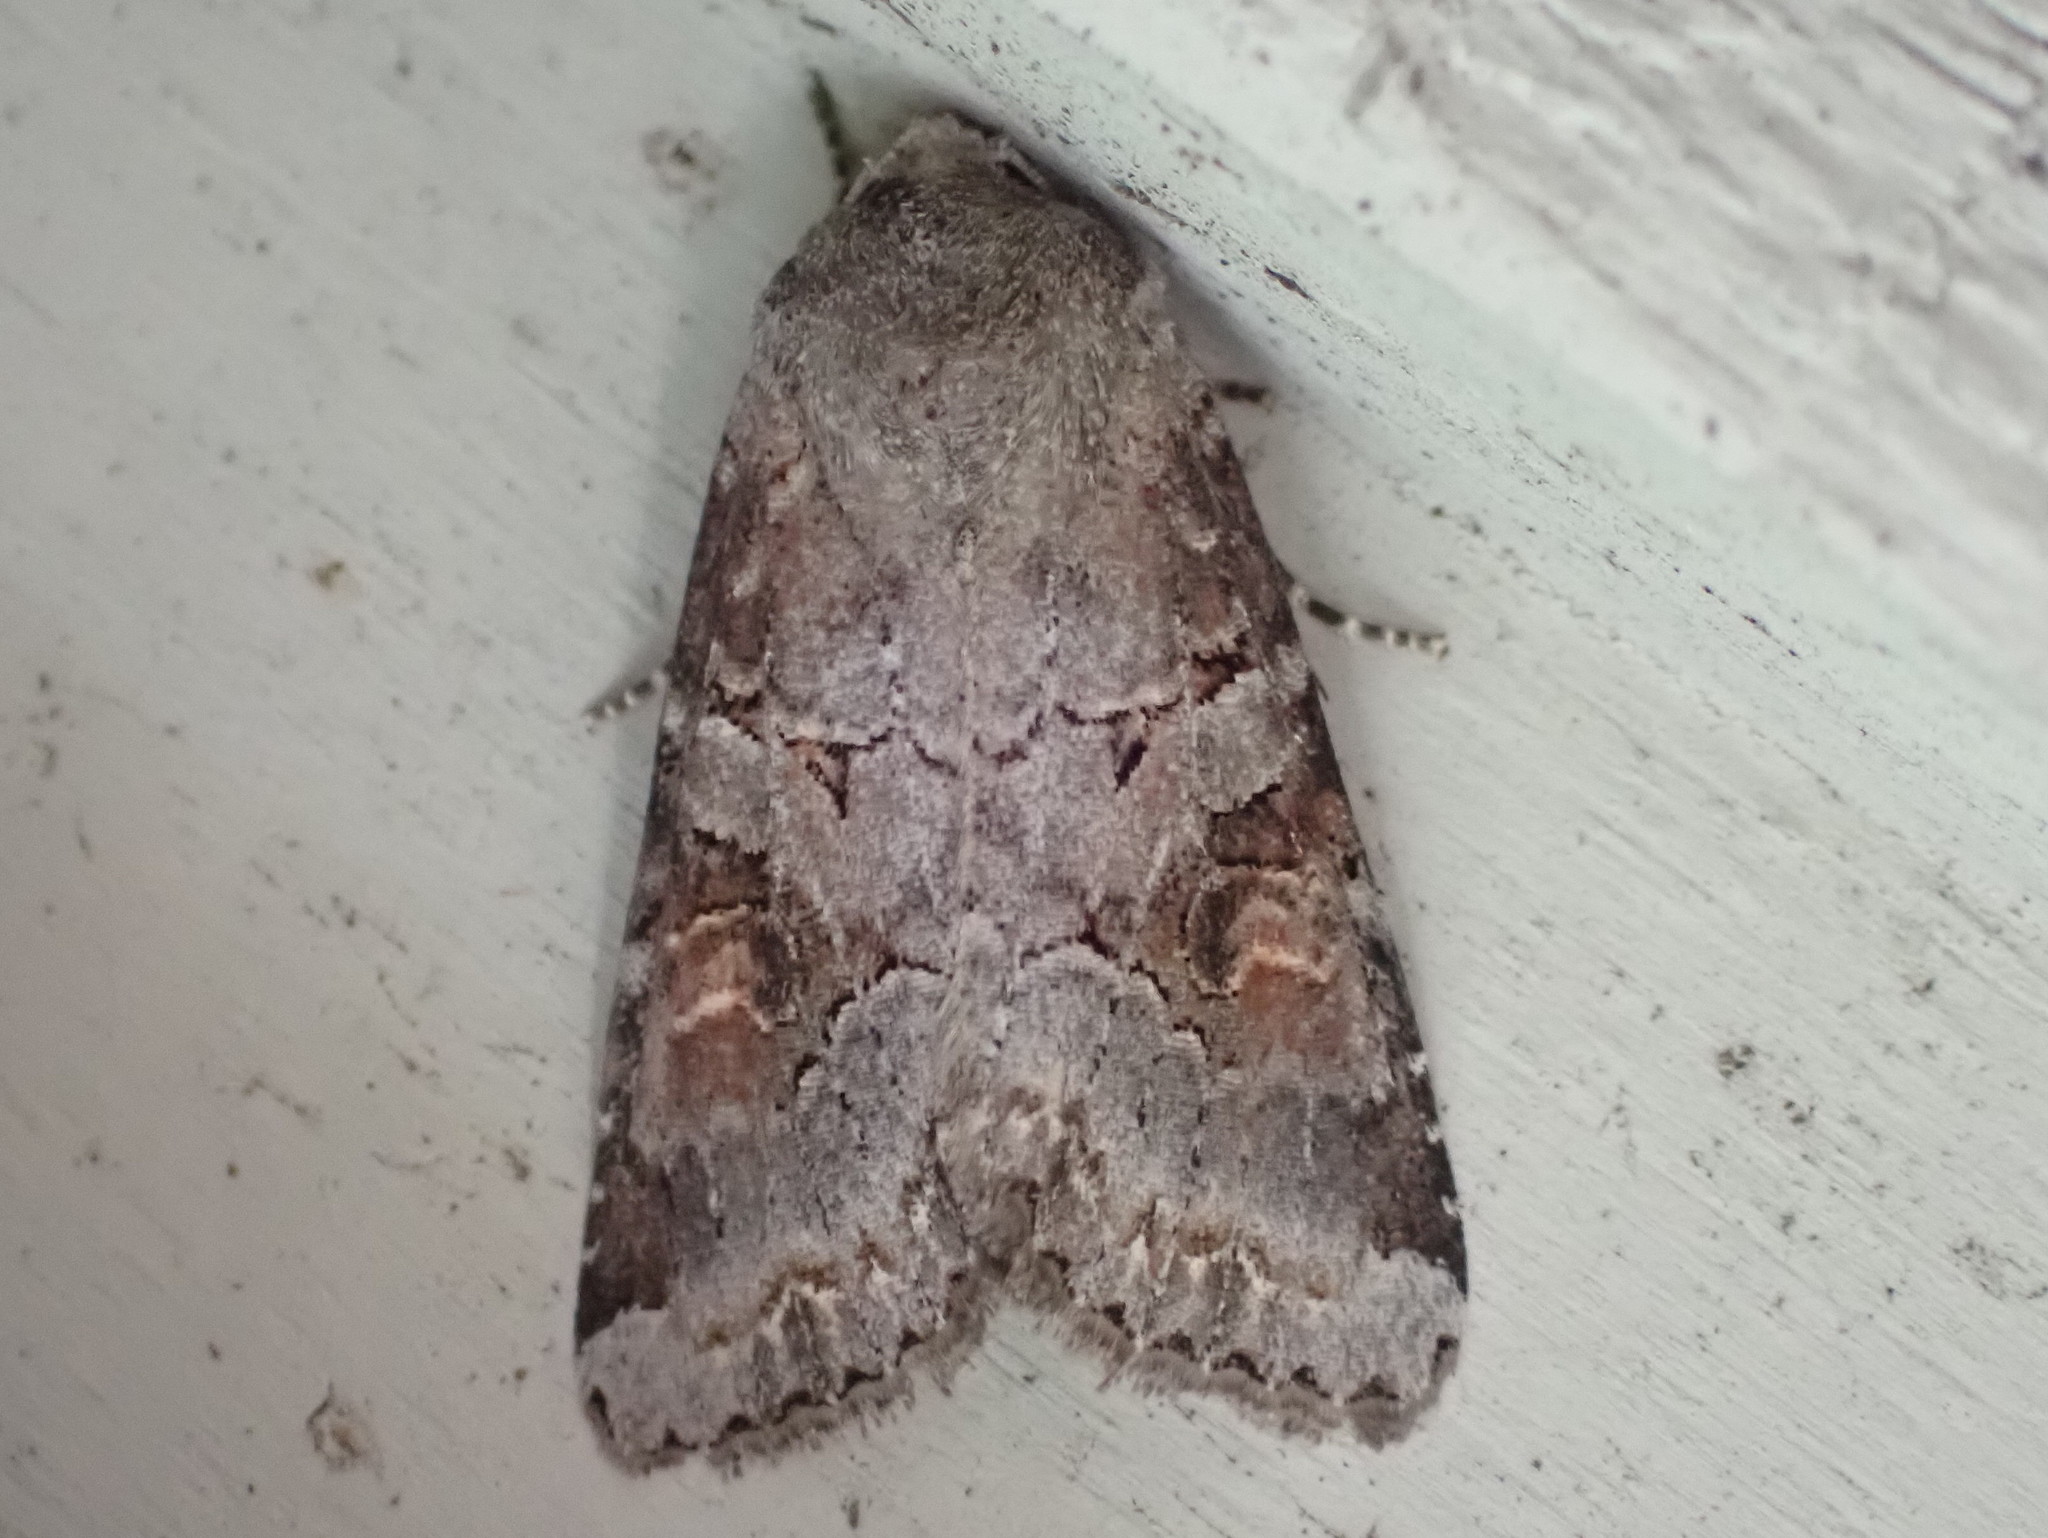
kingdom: Animalia
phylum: Arthropoda
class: Insecta
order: Lepidoptera
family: Noctuidae
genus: Trichordestra
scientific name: Trichordestra legitima
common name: Striped garden caterpillar
